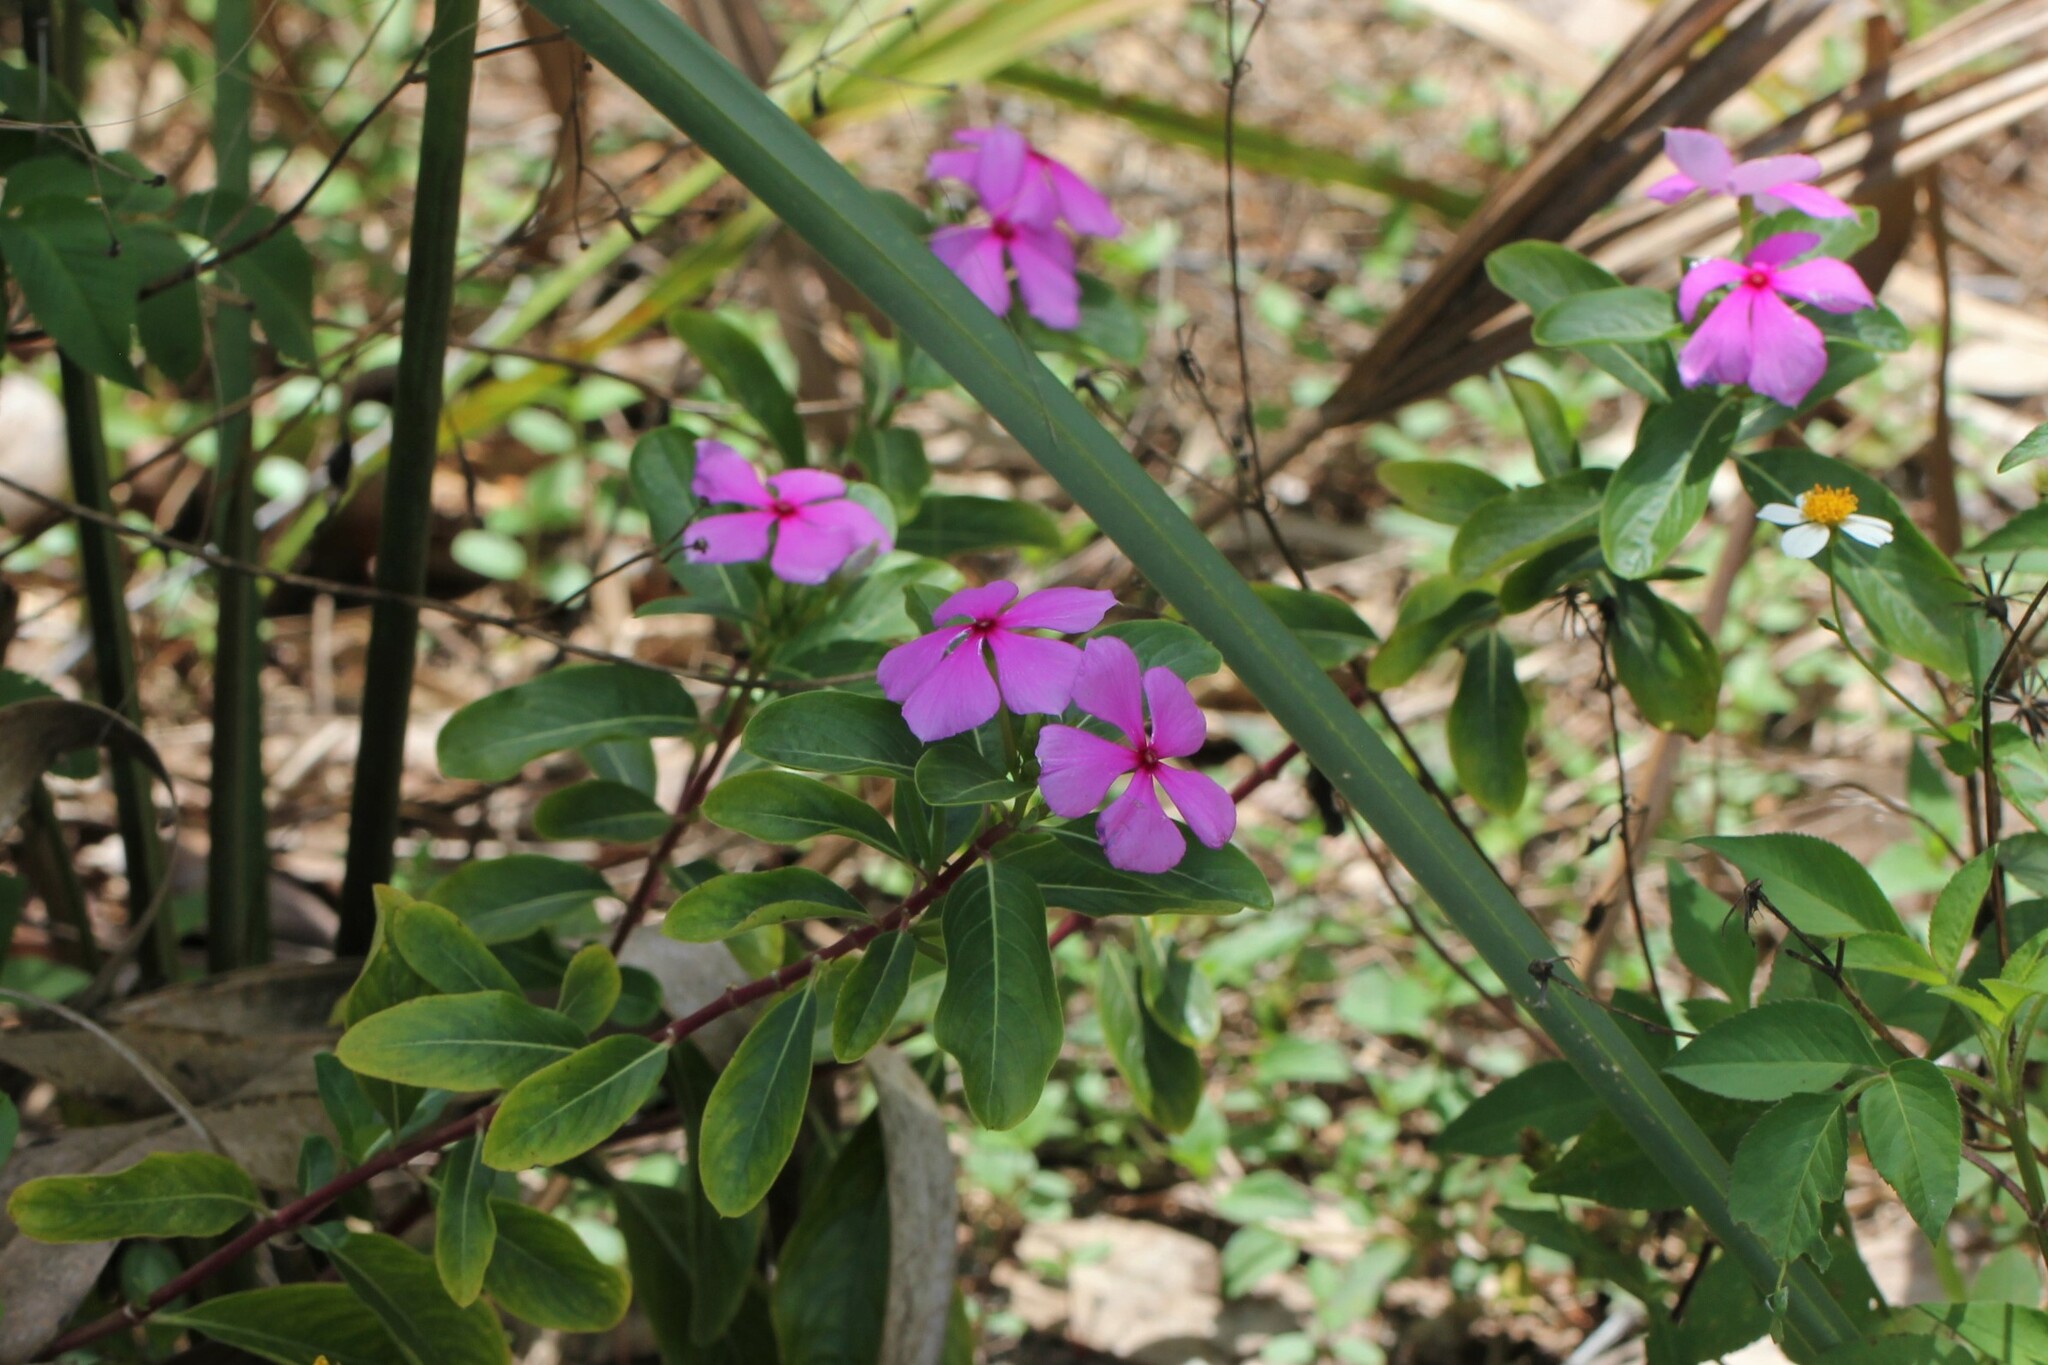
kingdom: Plantae
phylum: Tracheophyta
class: Magnoliopsida
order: Gentianales
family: Apocynaceae
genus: Catharanthus
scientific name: Catharanthus roseus
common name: Madagascar periwinkle
